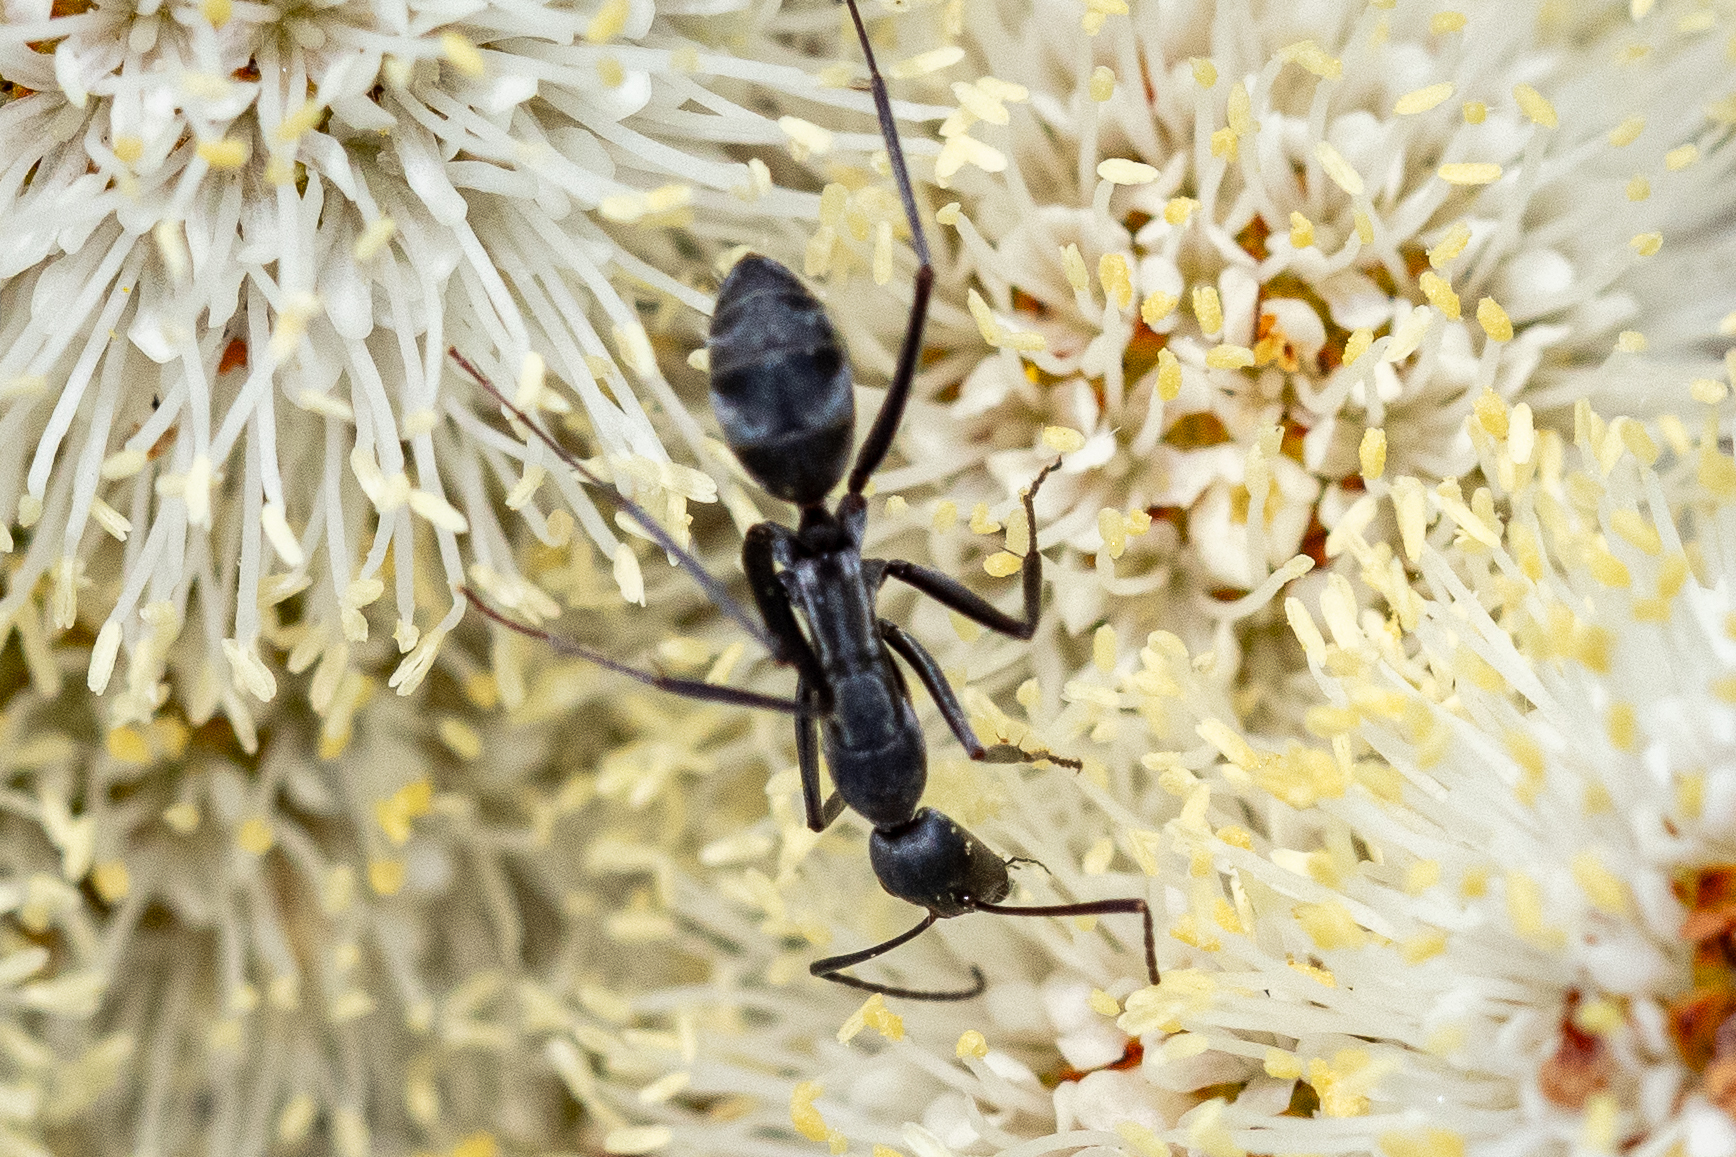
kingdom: Animalia
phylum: Arthropoda
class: Insecta
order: Hymenoptera
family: Formicidae
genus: Camponotus
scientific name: Camponotus niveosetosus
